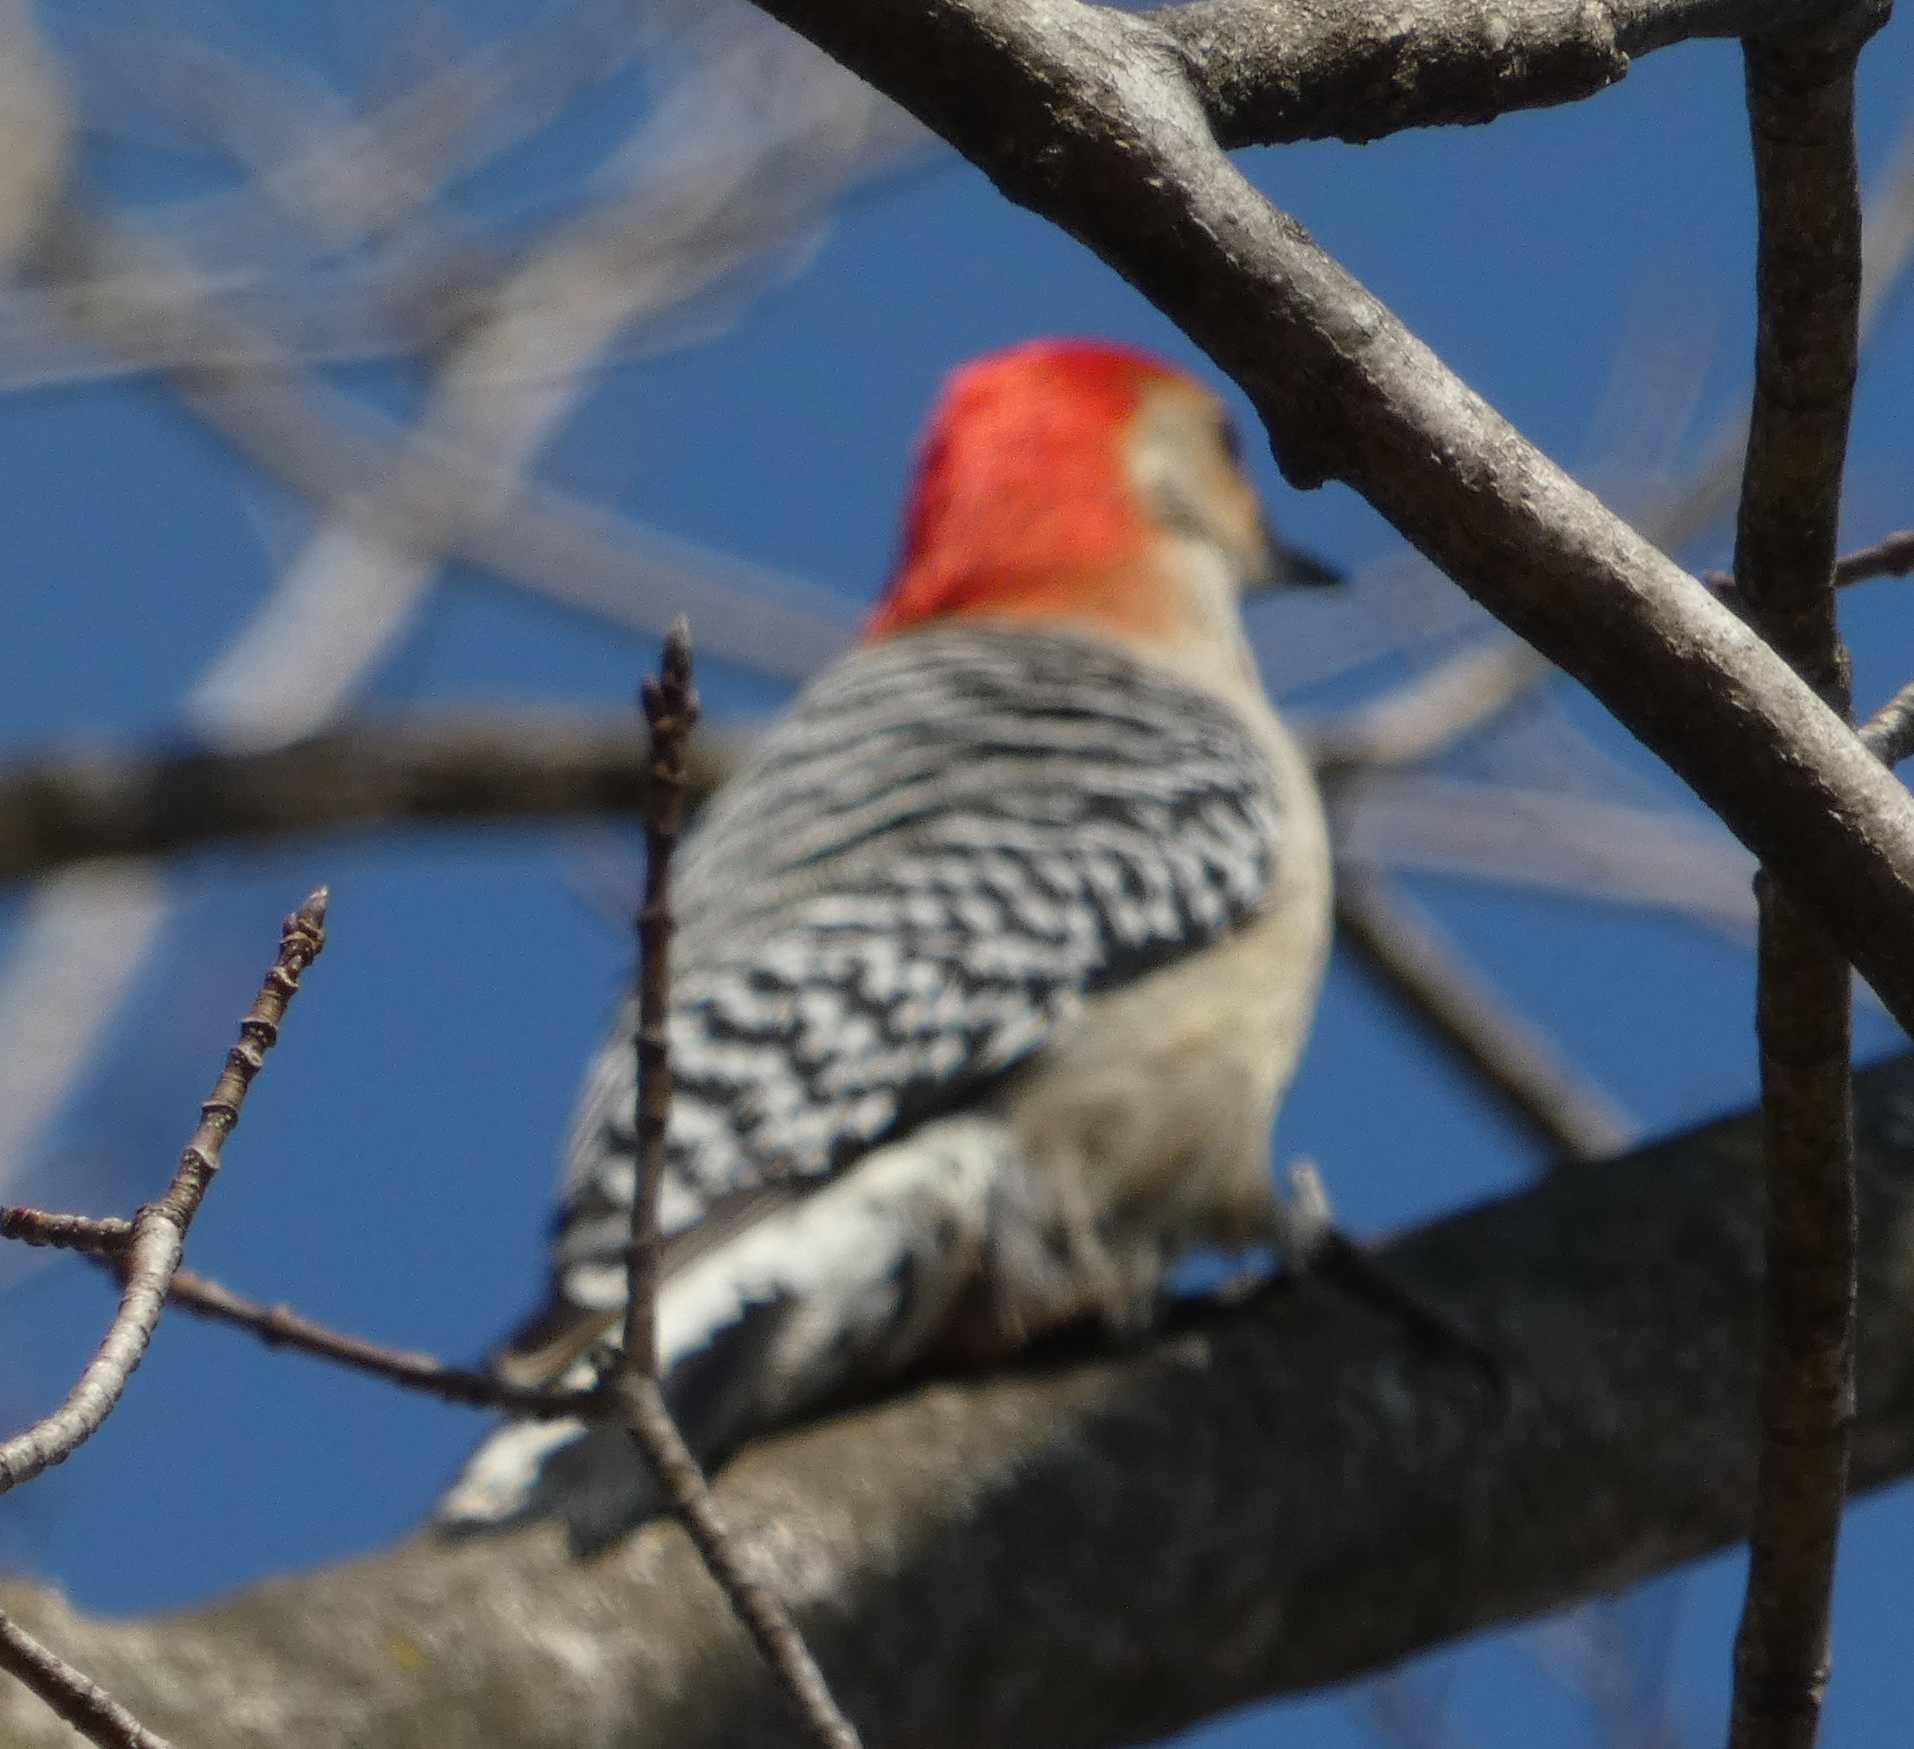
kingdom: Animalia
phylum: Chordata
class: Aves
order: Piciformes
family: Picidae
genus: Melanerpes
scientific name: Melanerpes carolinus
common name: Red-bellied woodpecker
